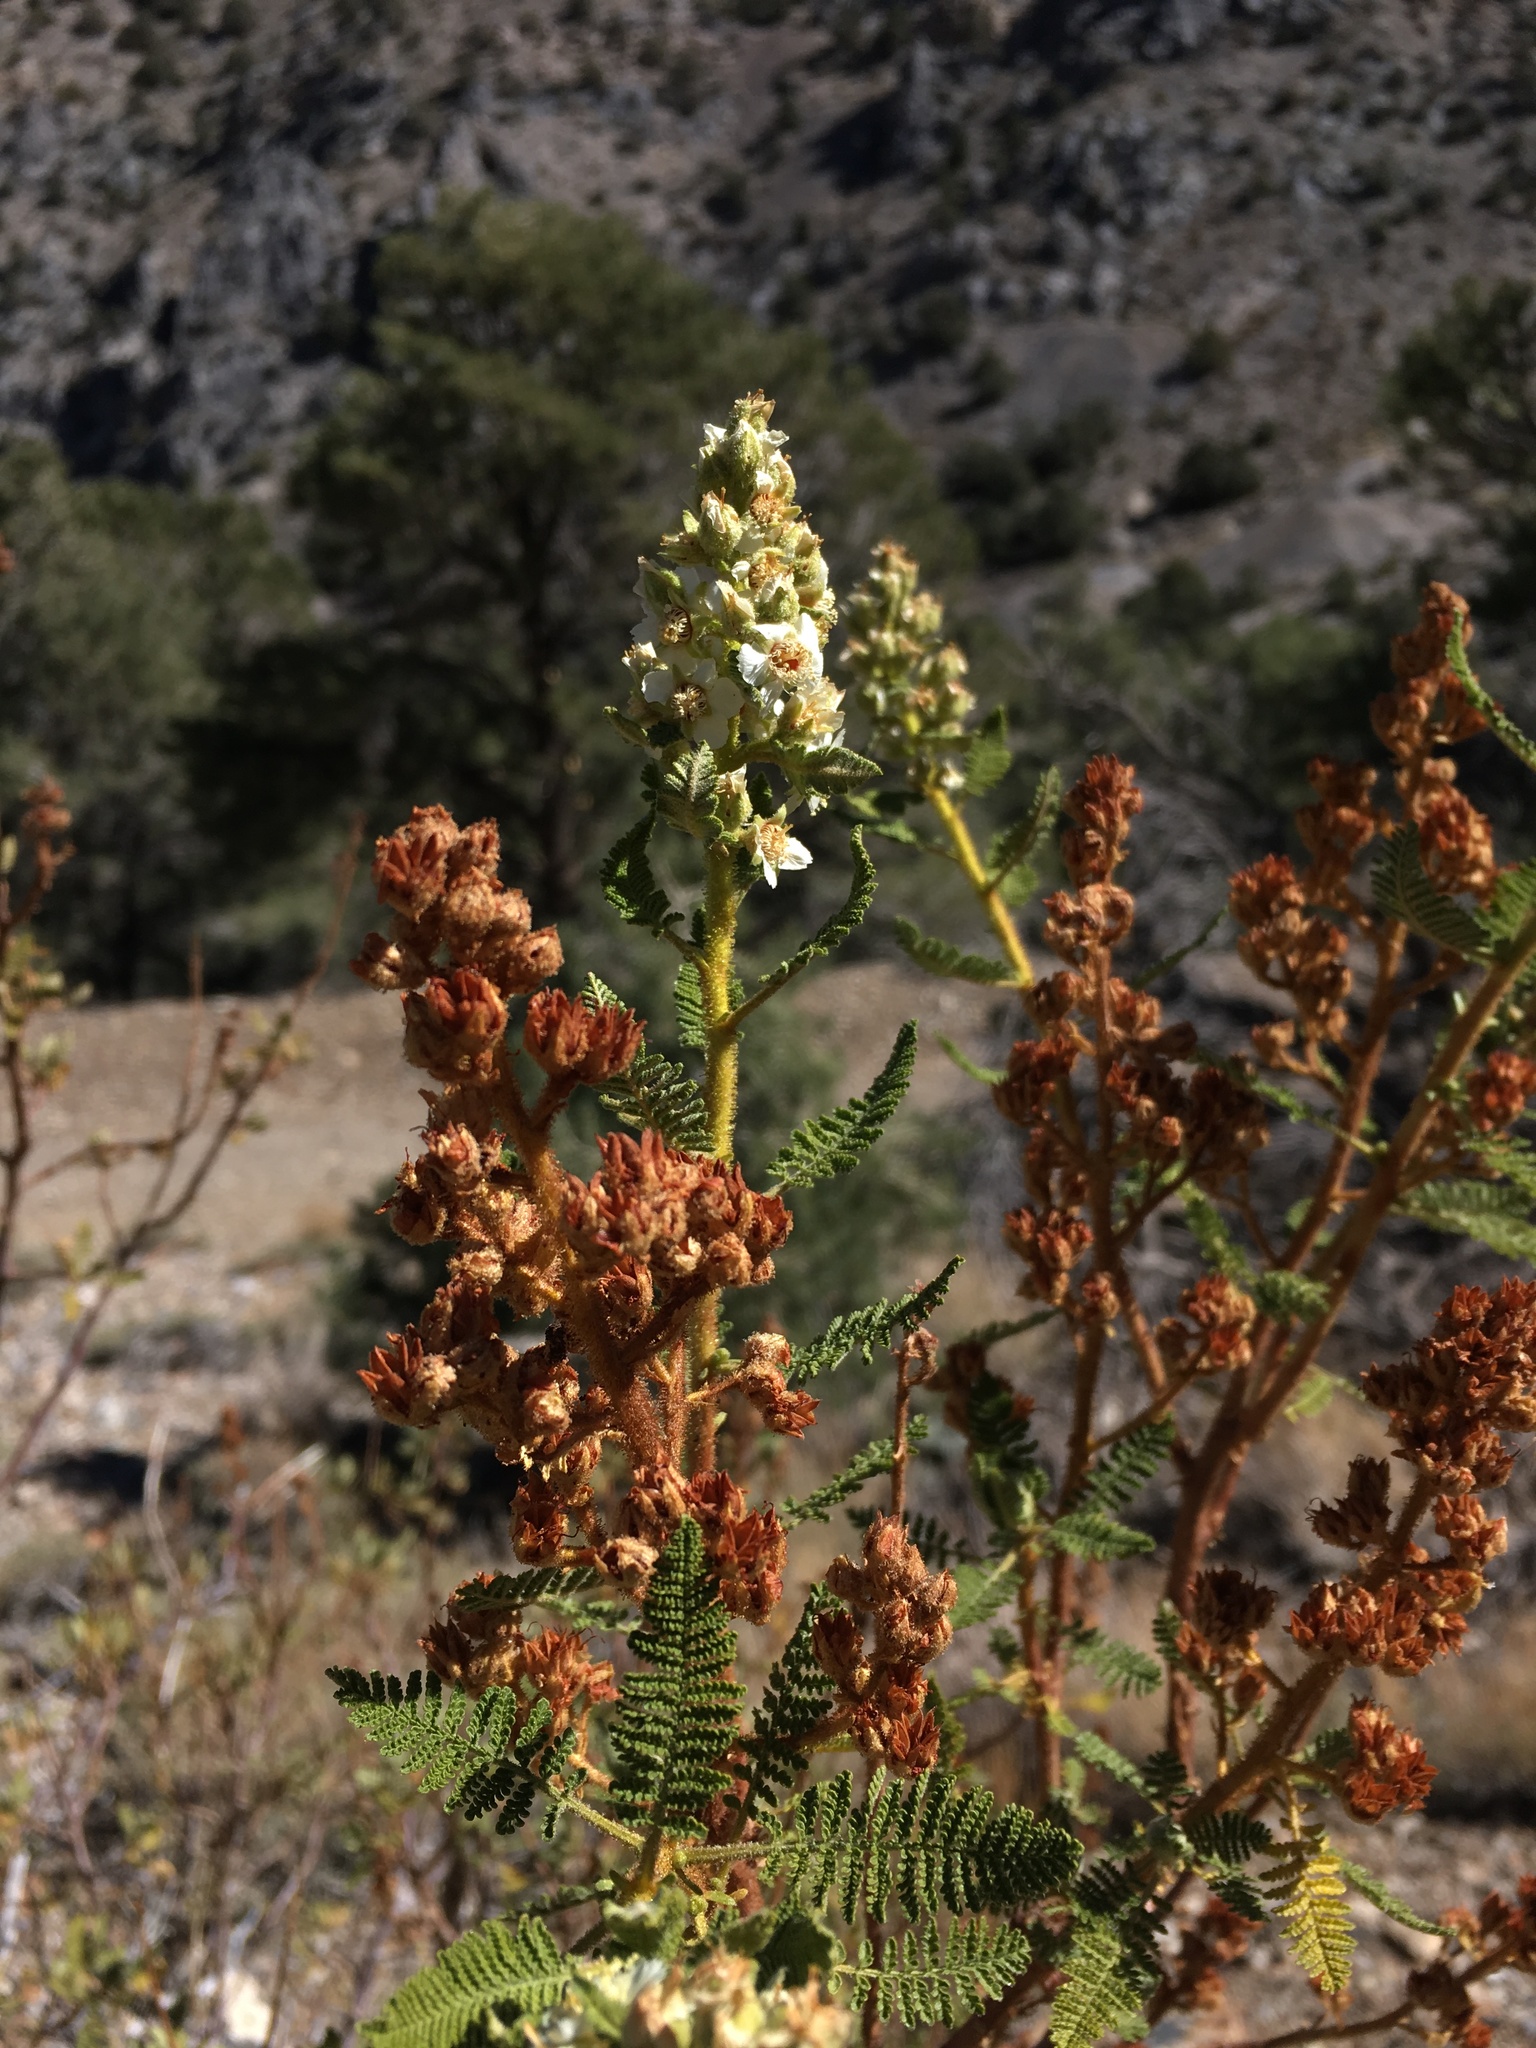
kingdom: Plantae
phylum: Tracheophyta
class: Magnoliopsida
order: Rosales
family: Rosaceae
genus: Chamaebatiaria
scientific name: Chamaebatiaria millefolium
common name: Fernbush
